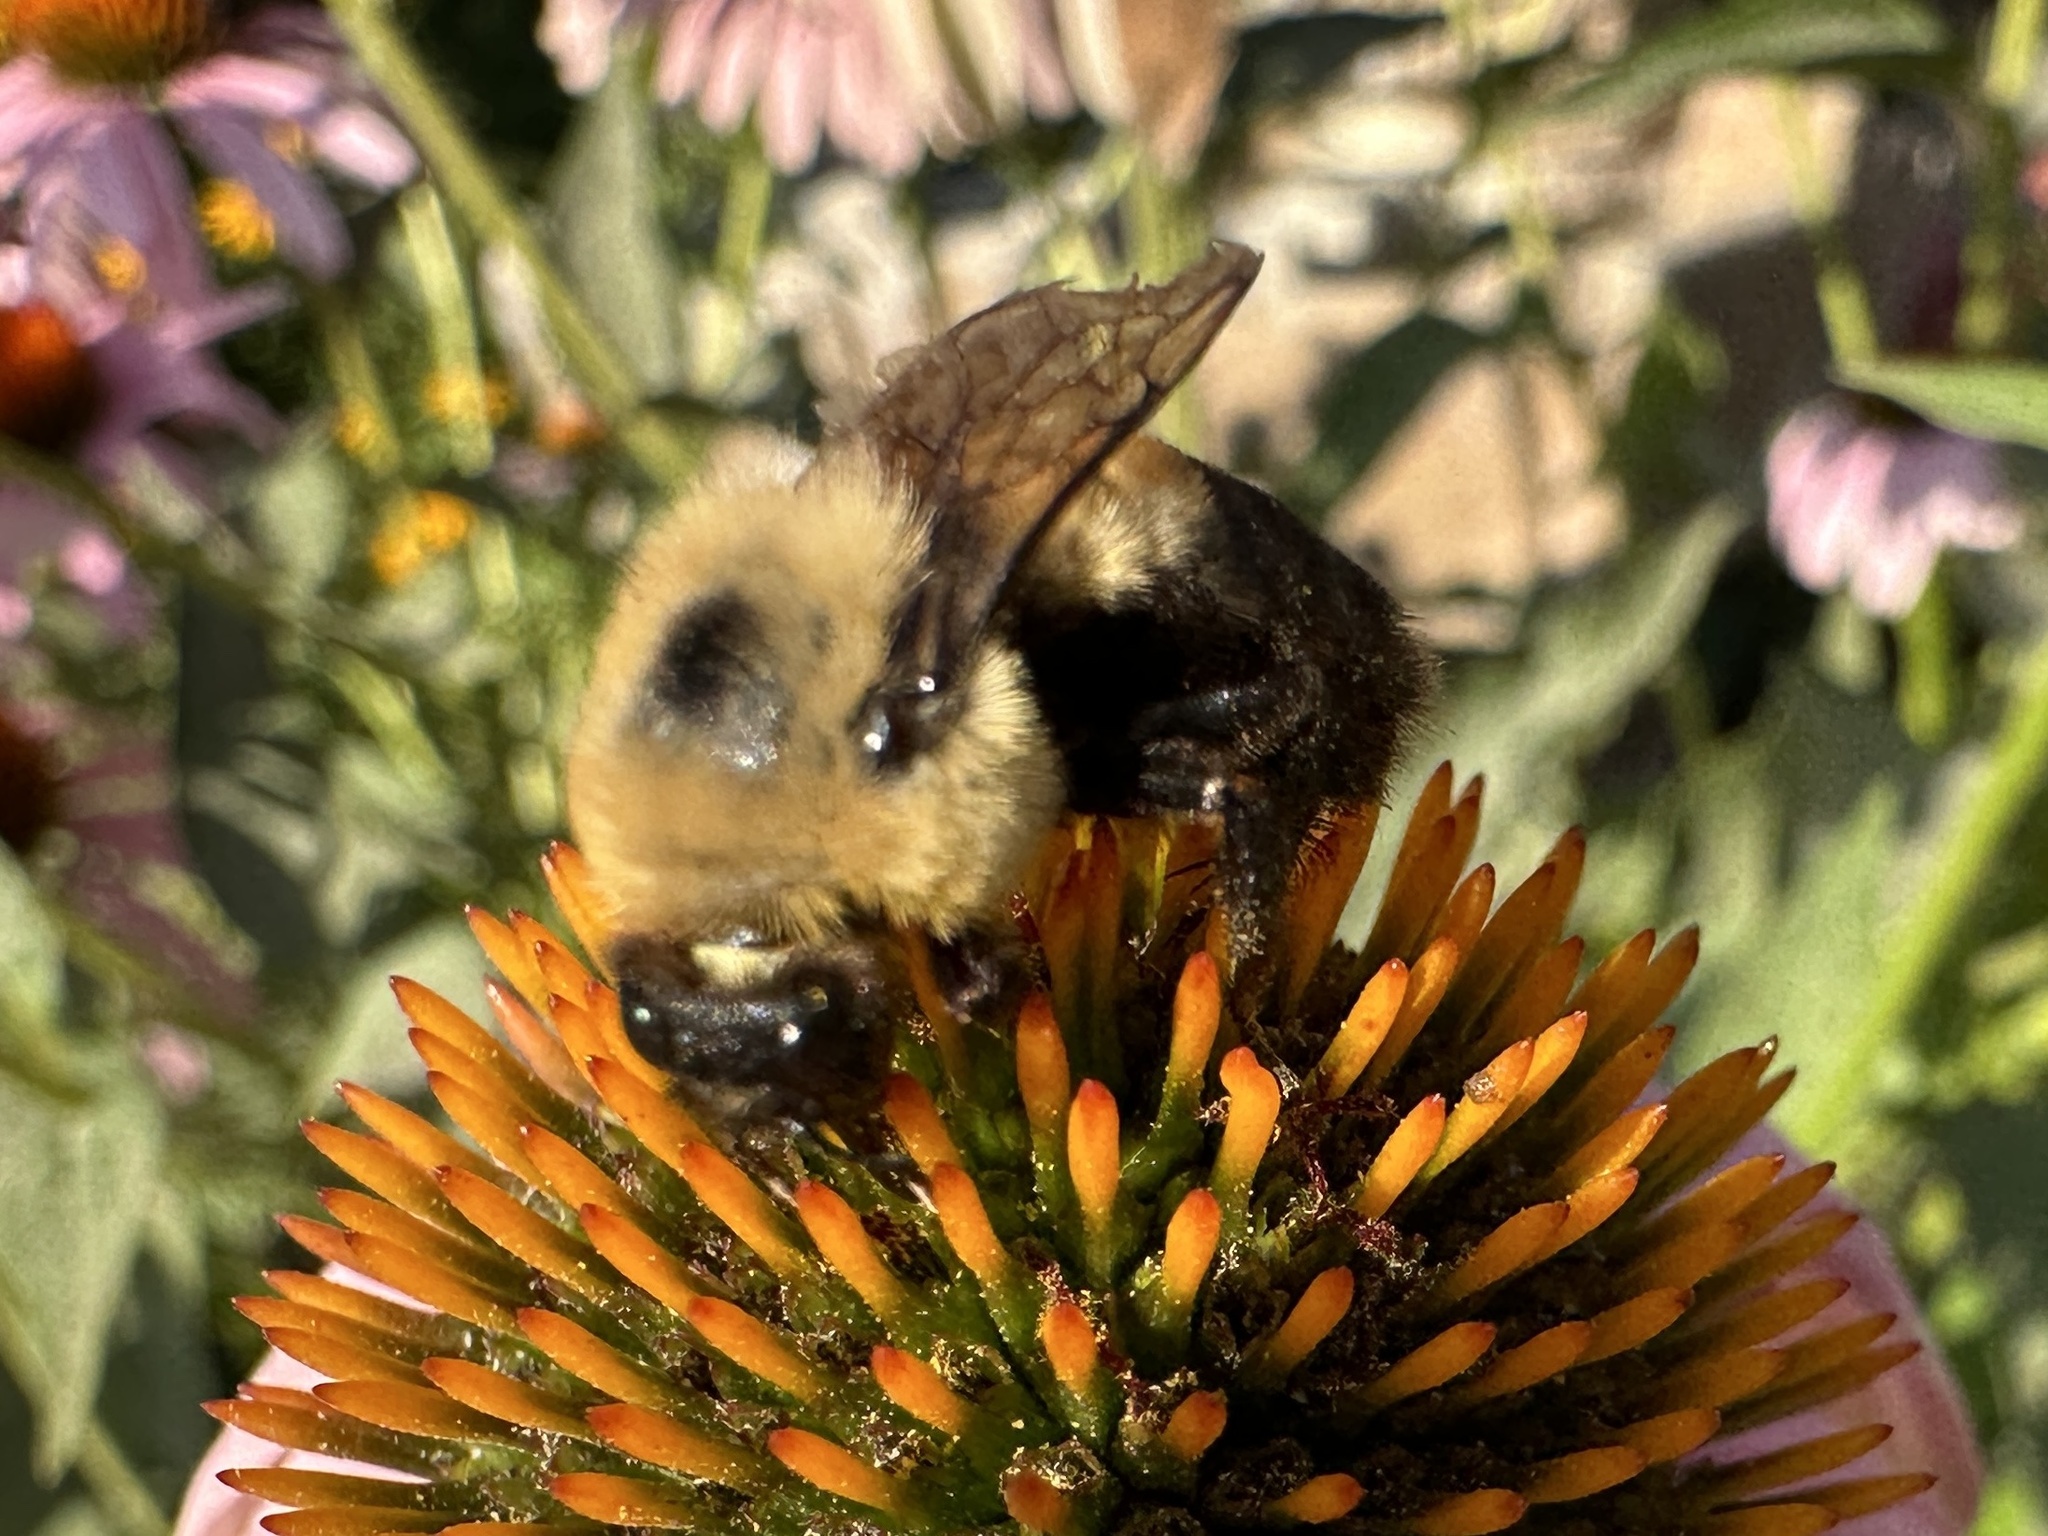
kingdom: Animalia
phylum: Arthropoda
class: Insecta
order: Hymenoptera
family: Apidae
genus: Bombus
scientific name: Bombus griseocollis
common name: Brown-belted bumble bee
